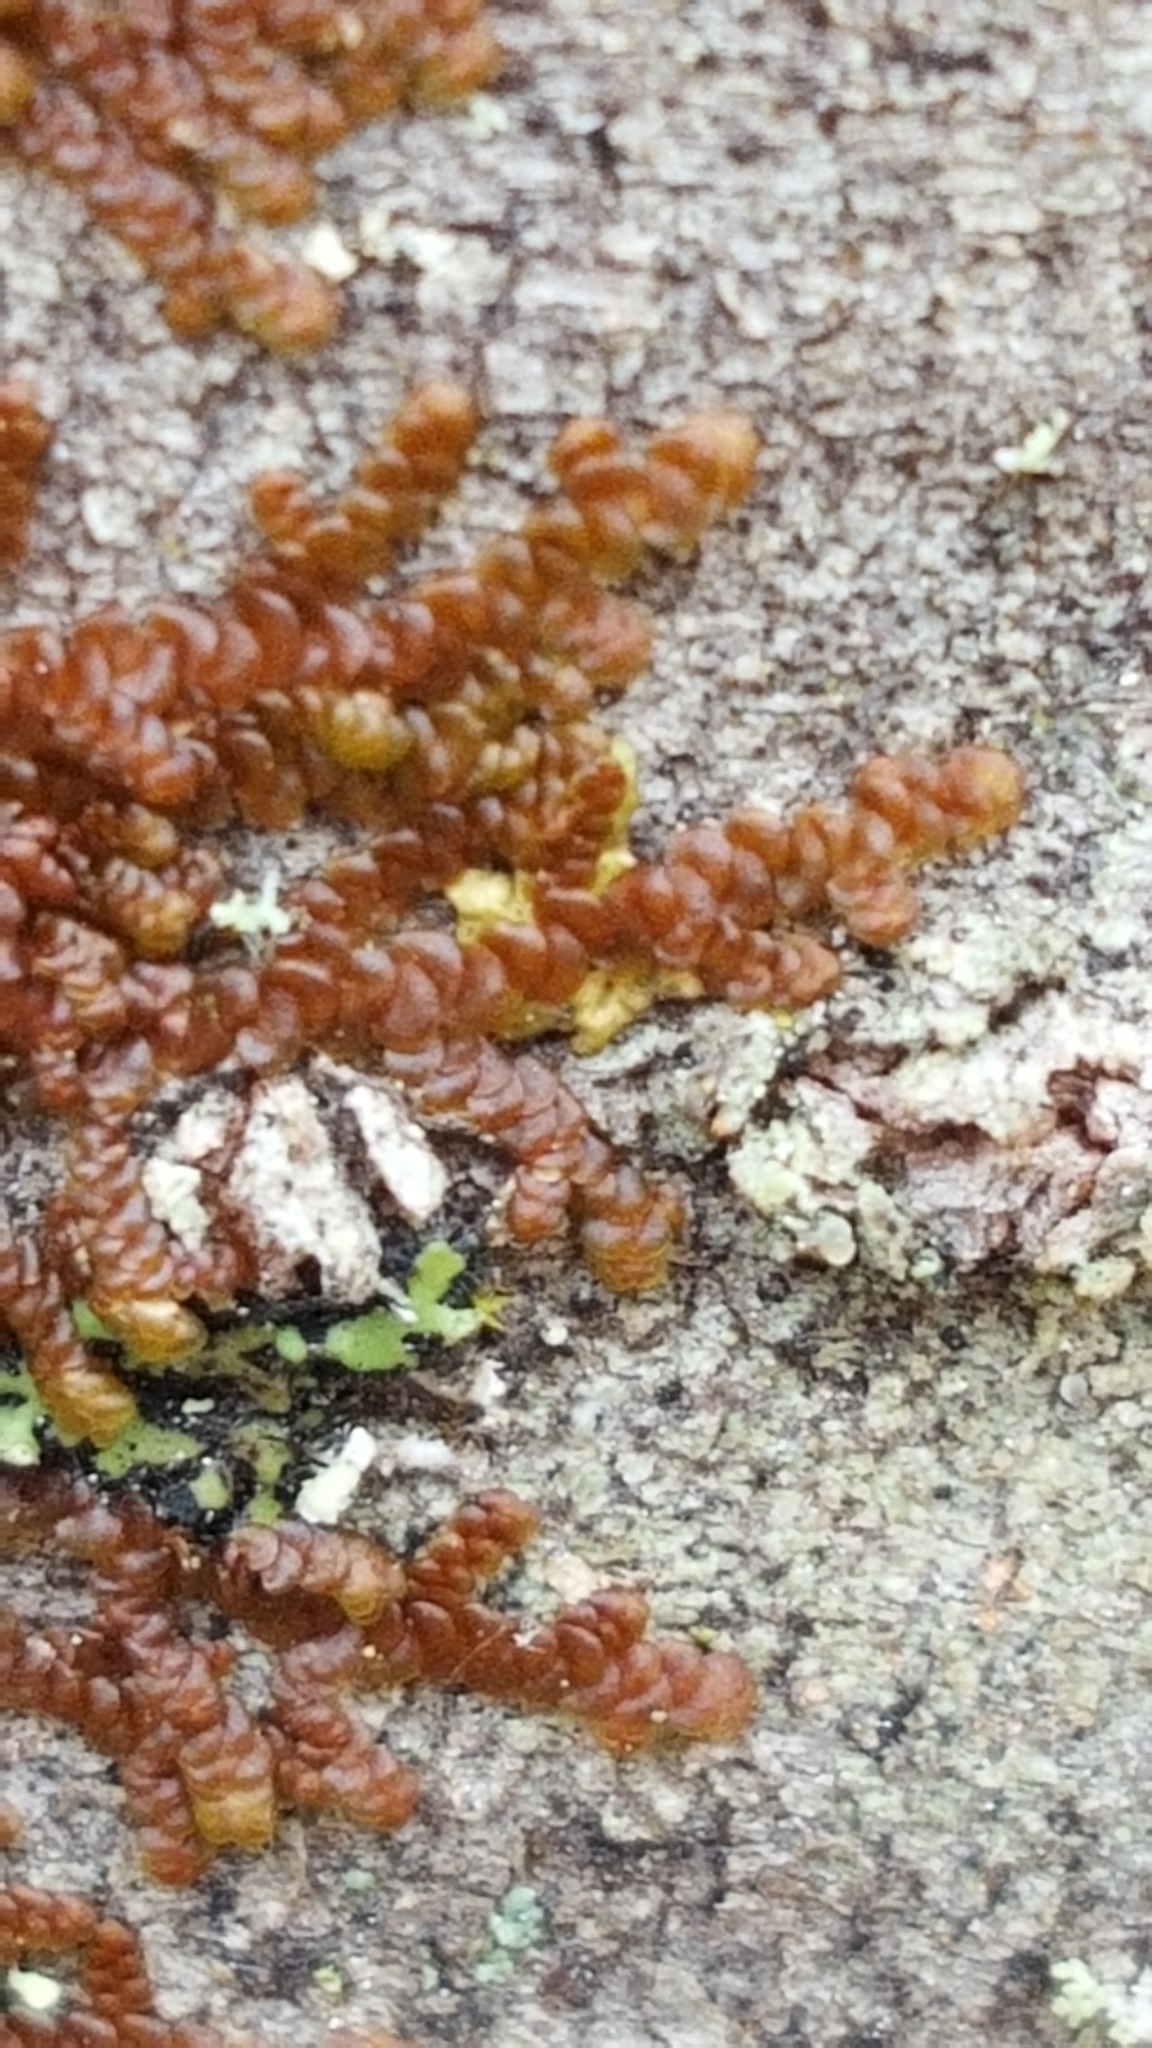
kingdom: Plantae
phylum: Marchantiophyta
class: Jungermanniopsida
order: Porellales
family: Frullaniaceae
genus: Frullania
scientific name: Frullania eboracensis
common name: New york scalewort
